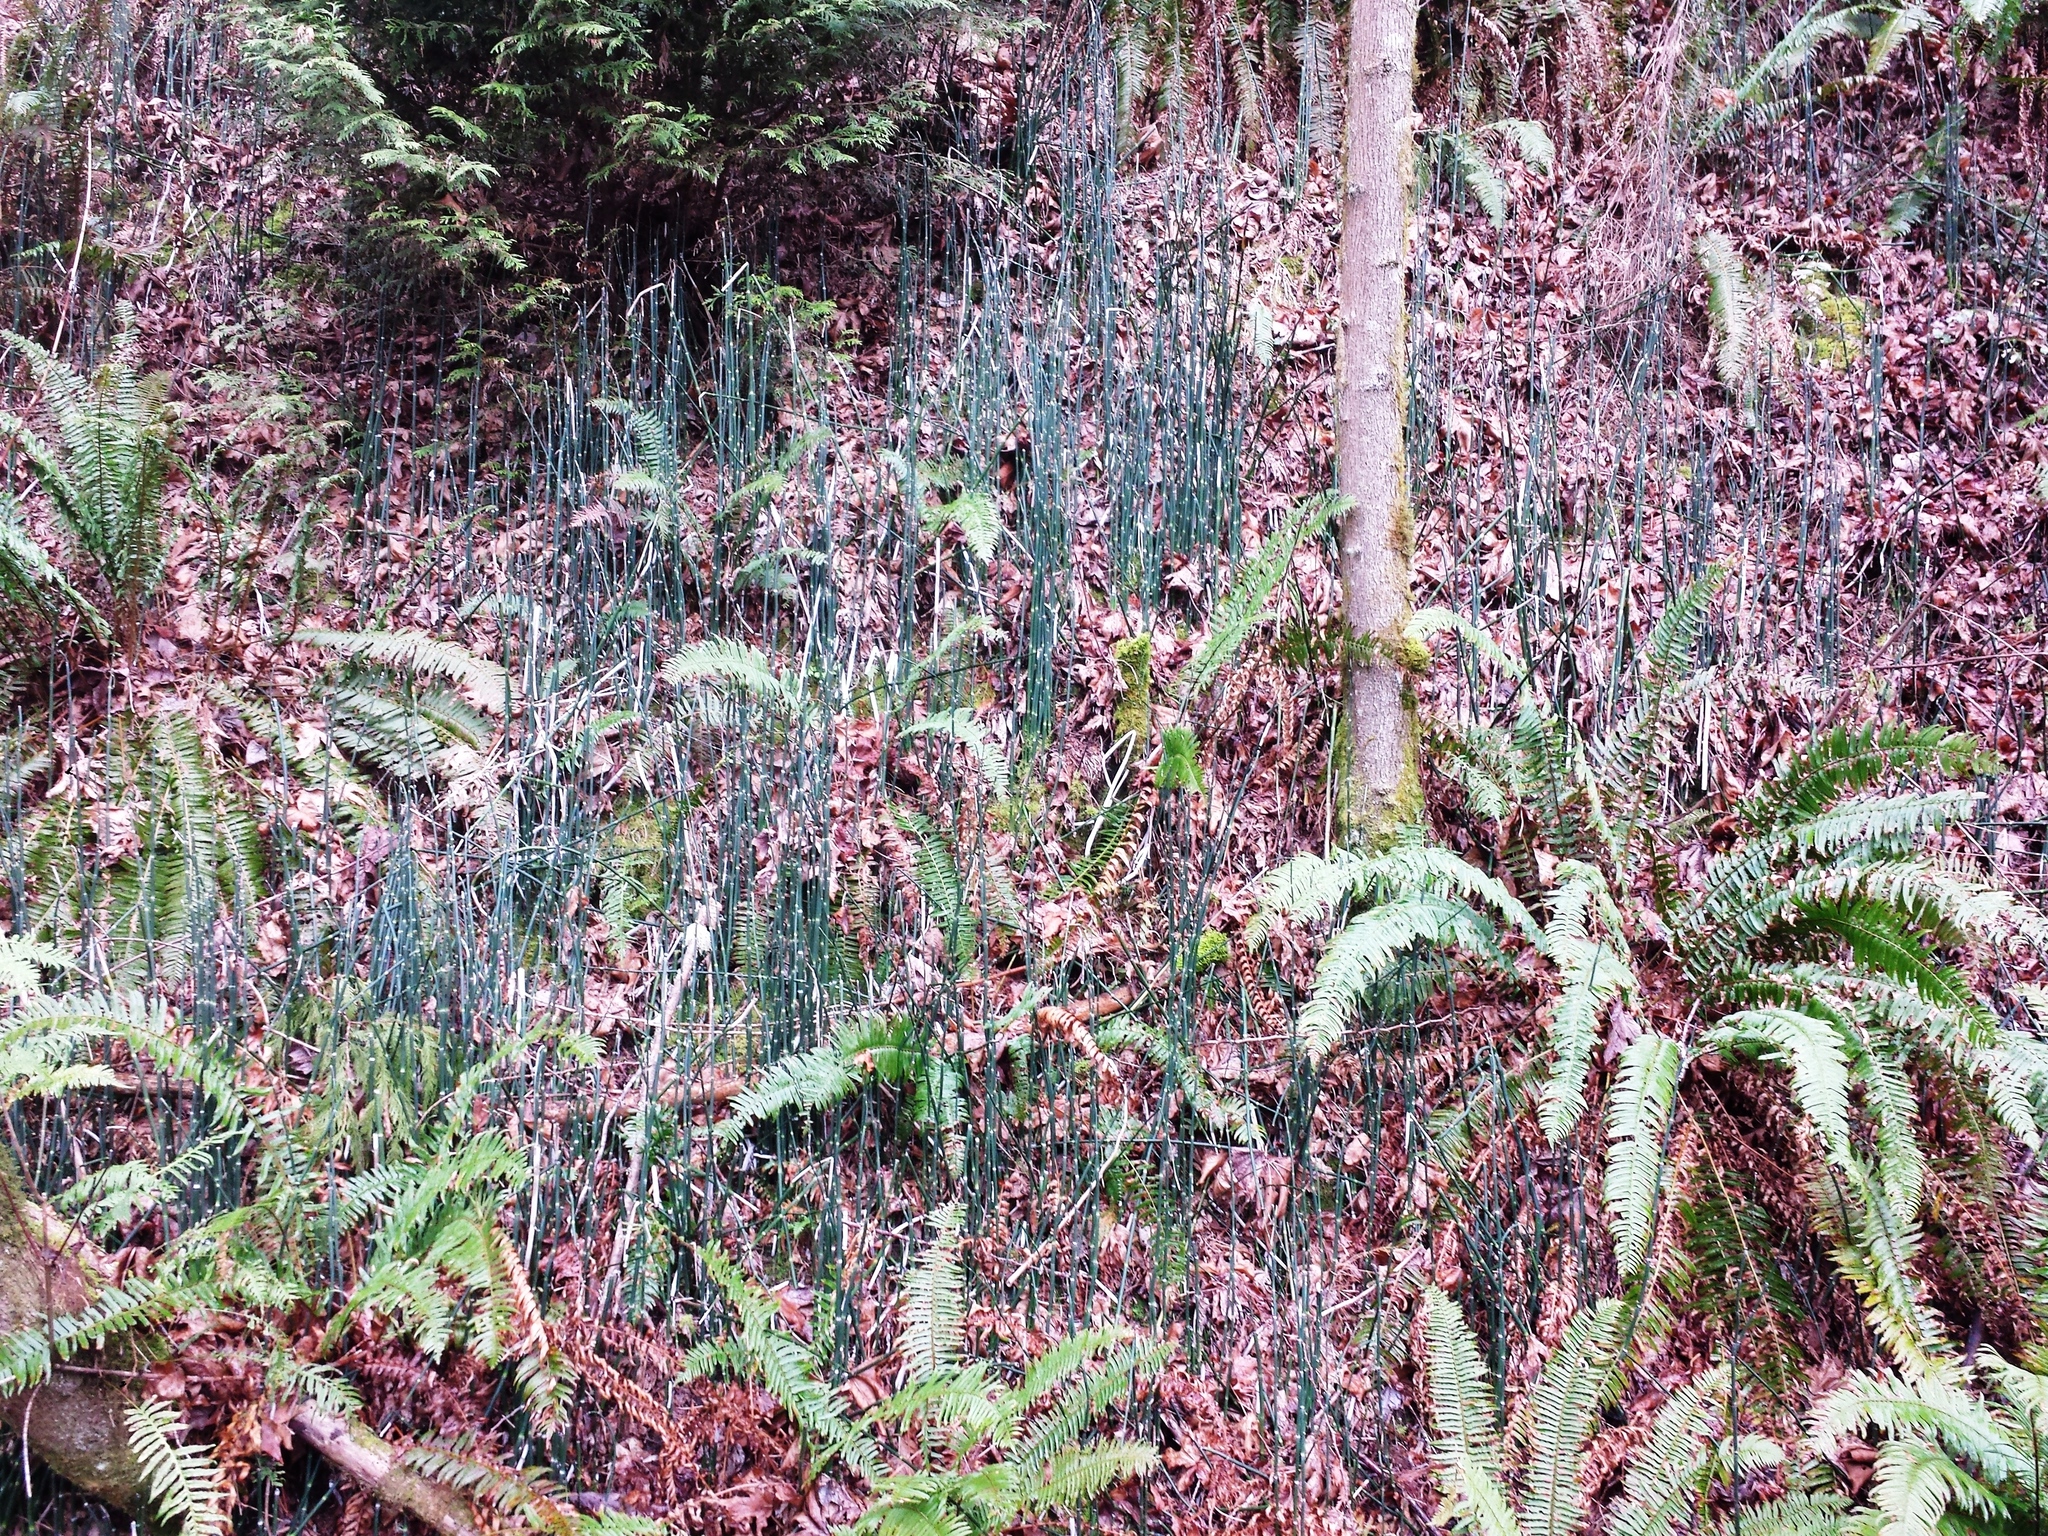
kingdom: Plantae
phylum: Tracheophyta
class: Polypodiopsida
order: Equisetales
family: Equisetaceae
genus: Equisetum
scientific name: Equisetum hyemale
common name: Rough horsetail
